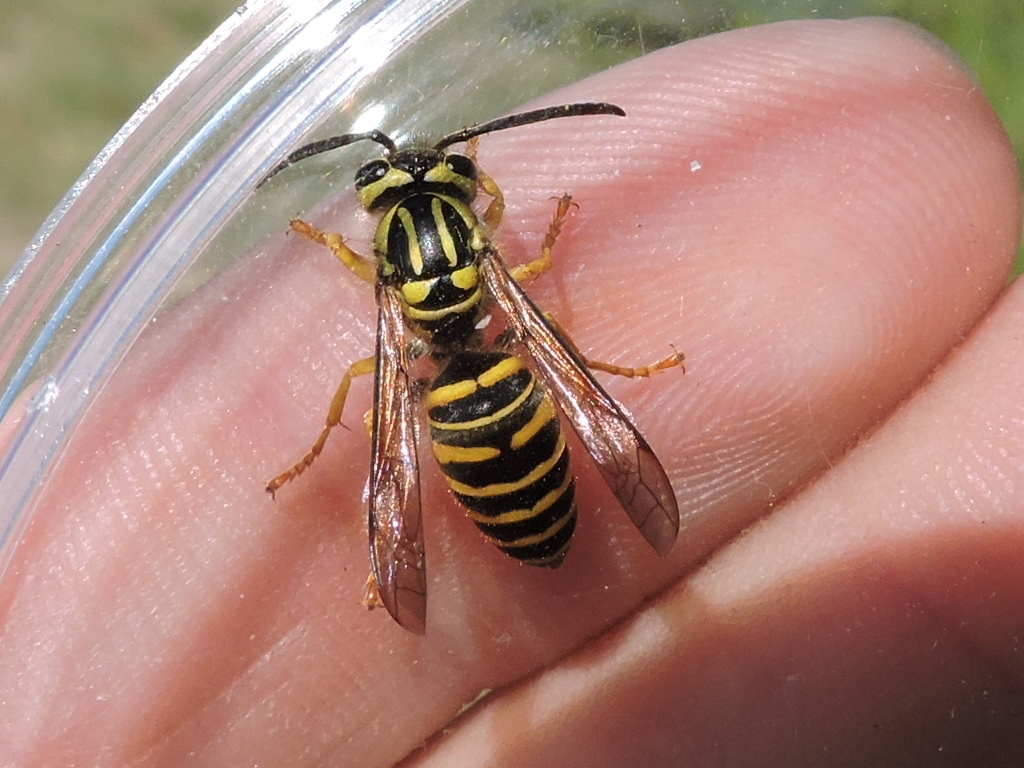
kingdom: Animalia
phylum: Arthropoda
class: Insecta
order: Hymenoptera
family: Vespidae
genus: Vespula
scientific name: Vespula squamosa
